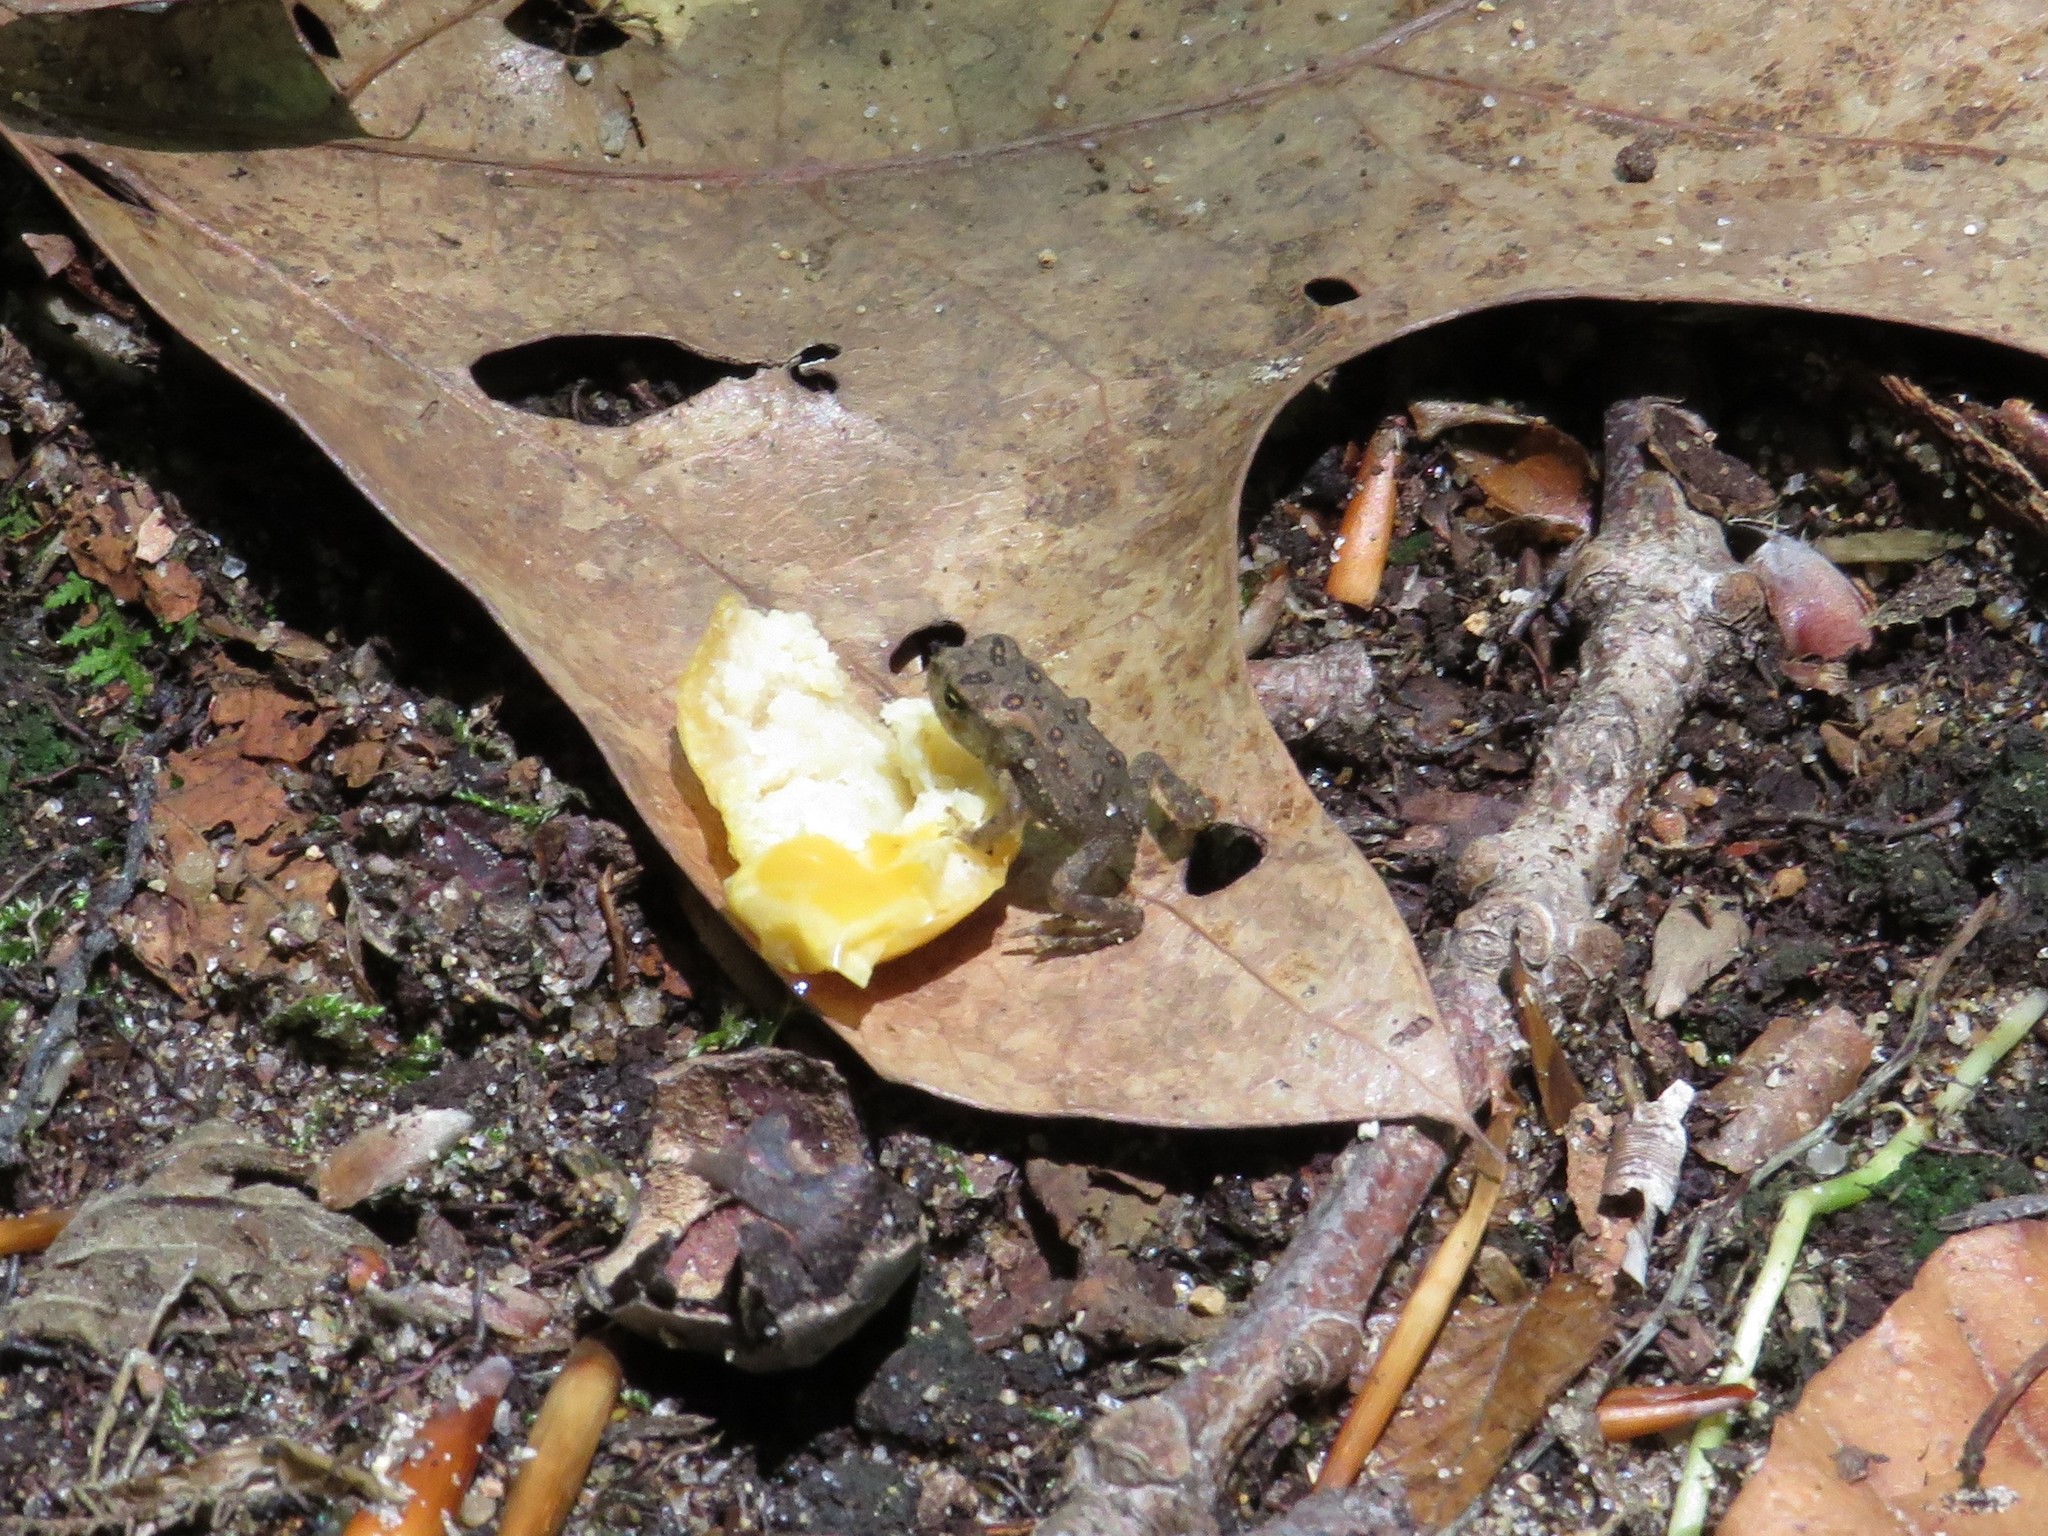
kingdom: Animalia
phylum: Chordata
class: Amphibia
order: Anura
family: Bufonidae
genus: Anaxyrus
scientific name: Anaxyrus americanus
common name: American toad
